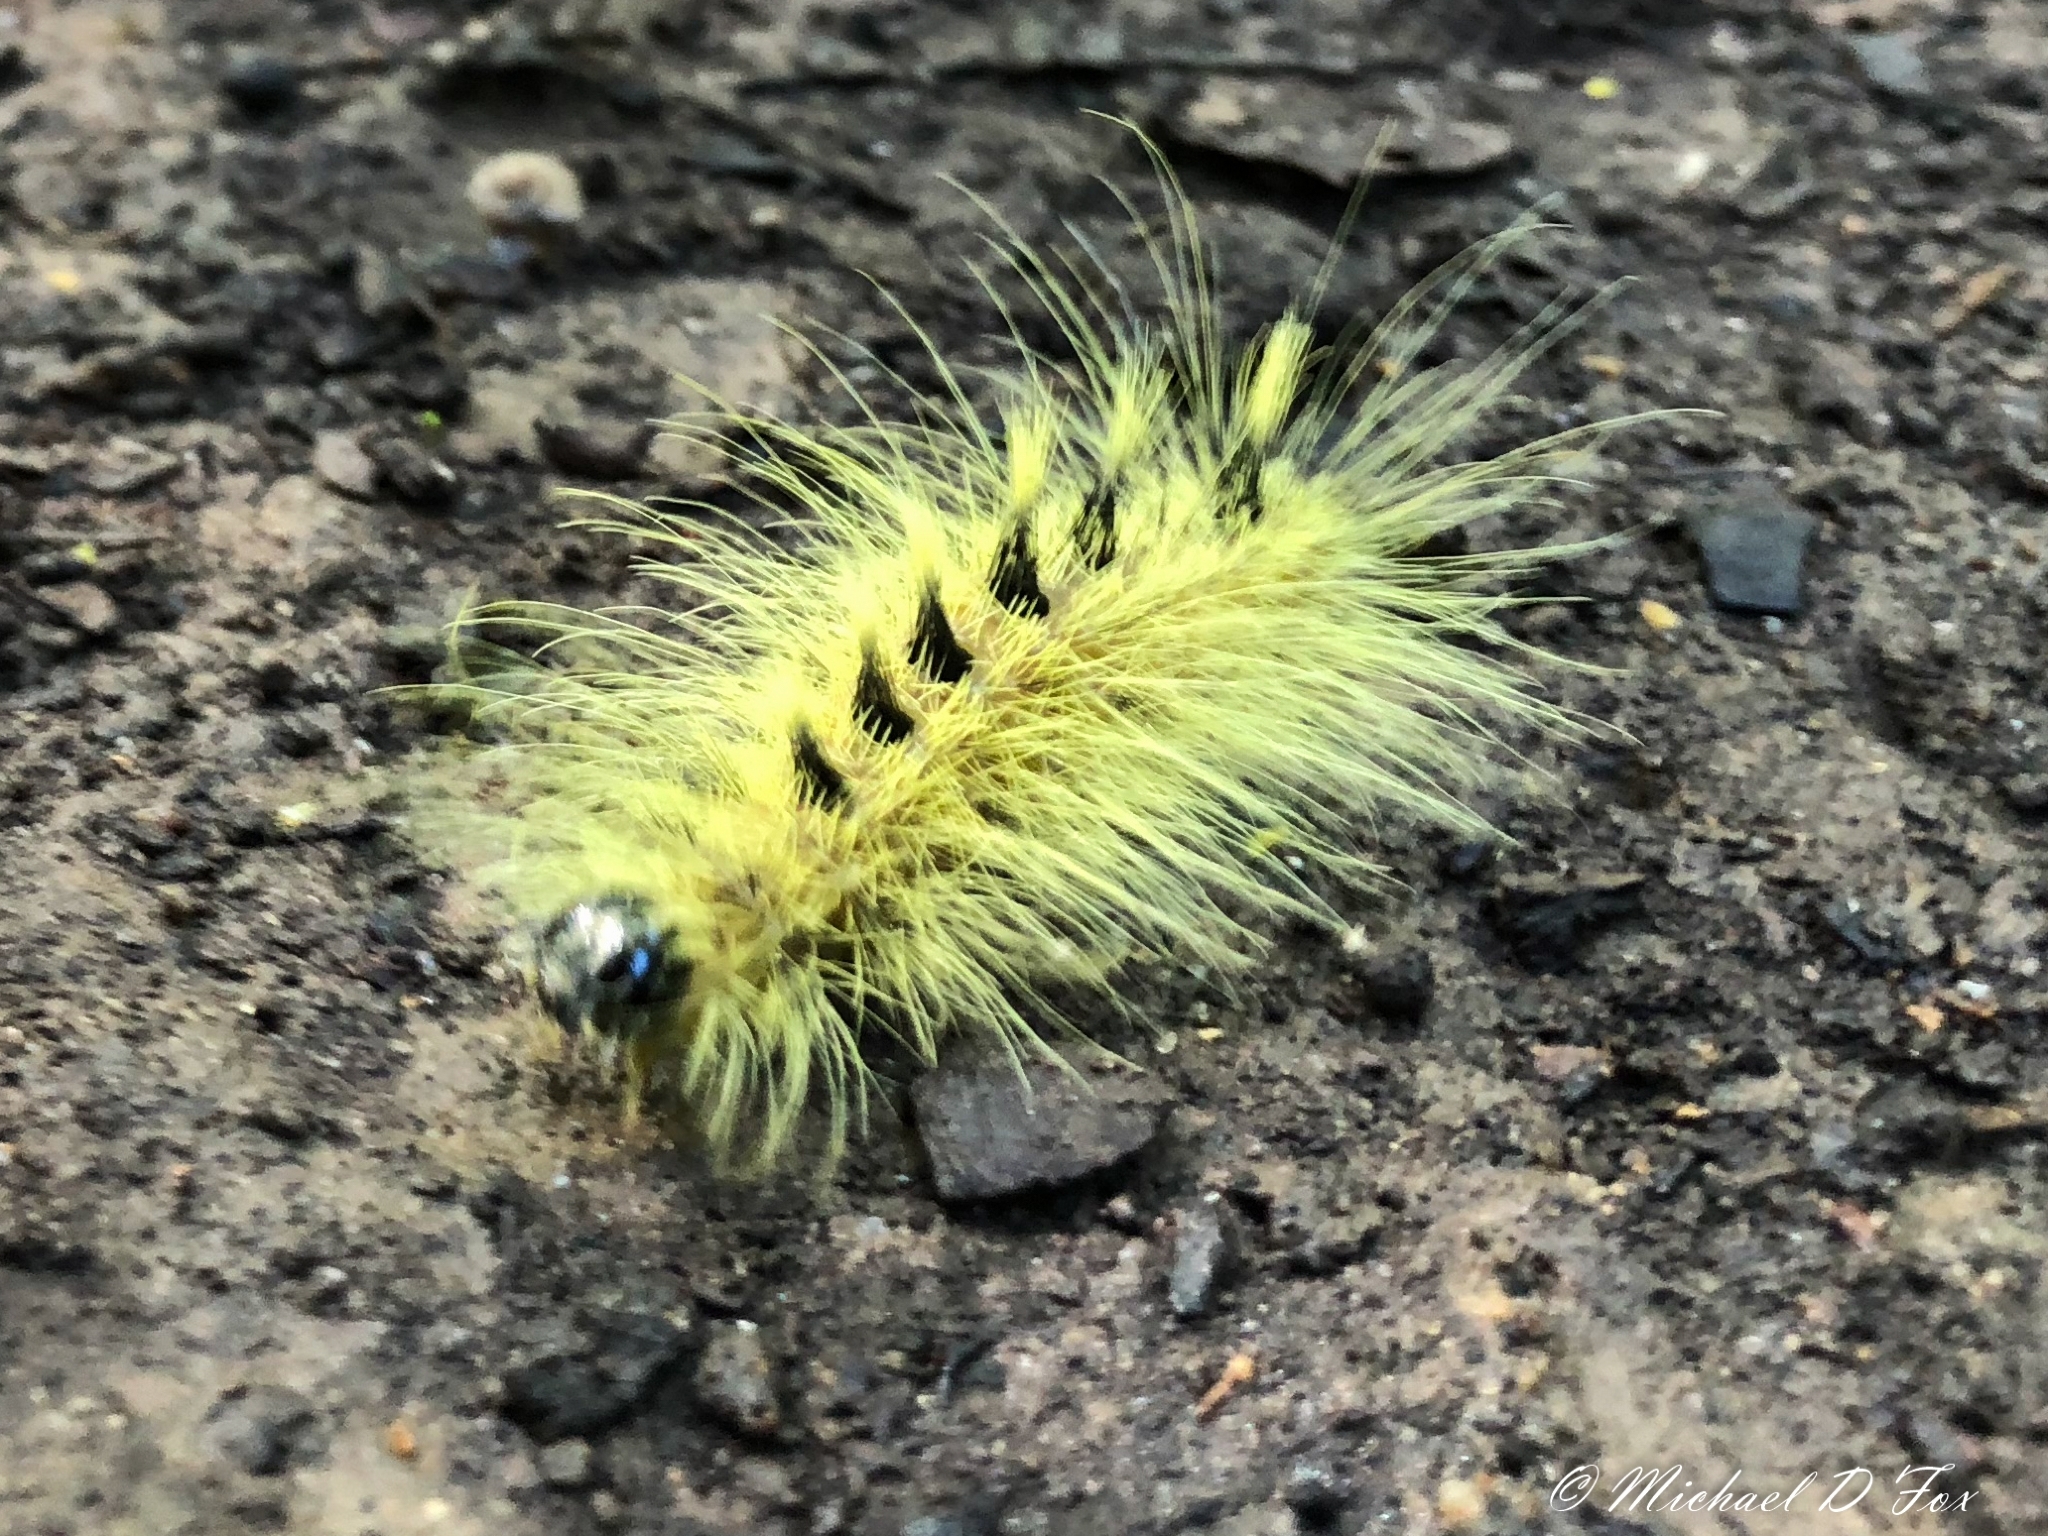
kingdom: Animalia
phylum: Arthropoda
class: Insecta
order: Lepidoptera
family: Noctuidae
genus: Acronicta
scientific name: Acronicta rubricoma
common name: Hackberry dagger
